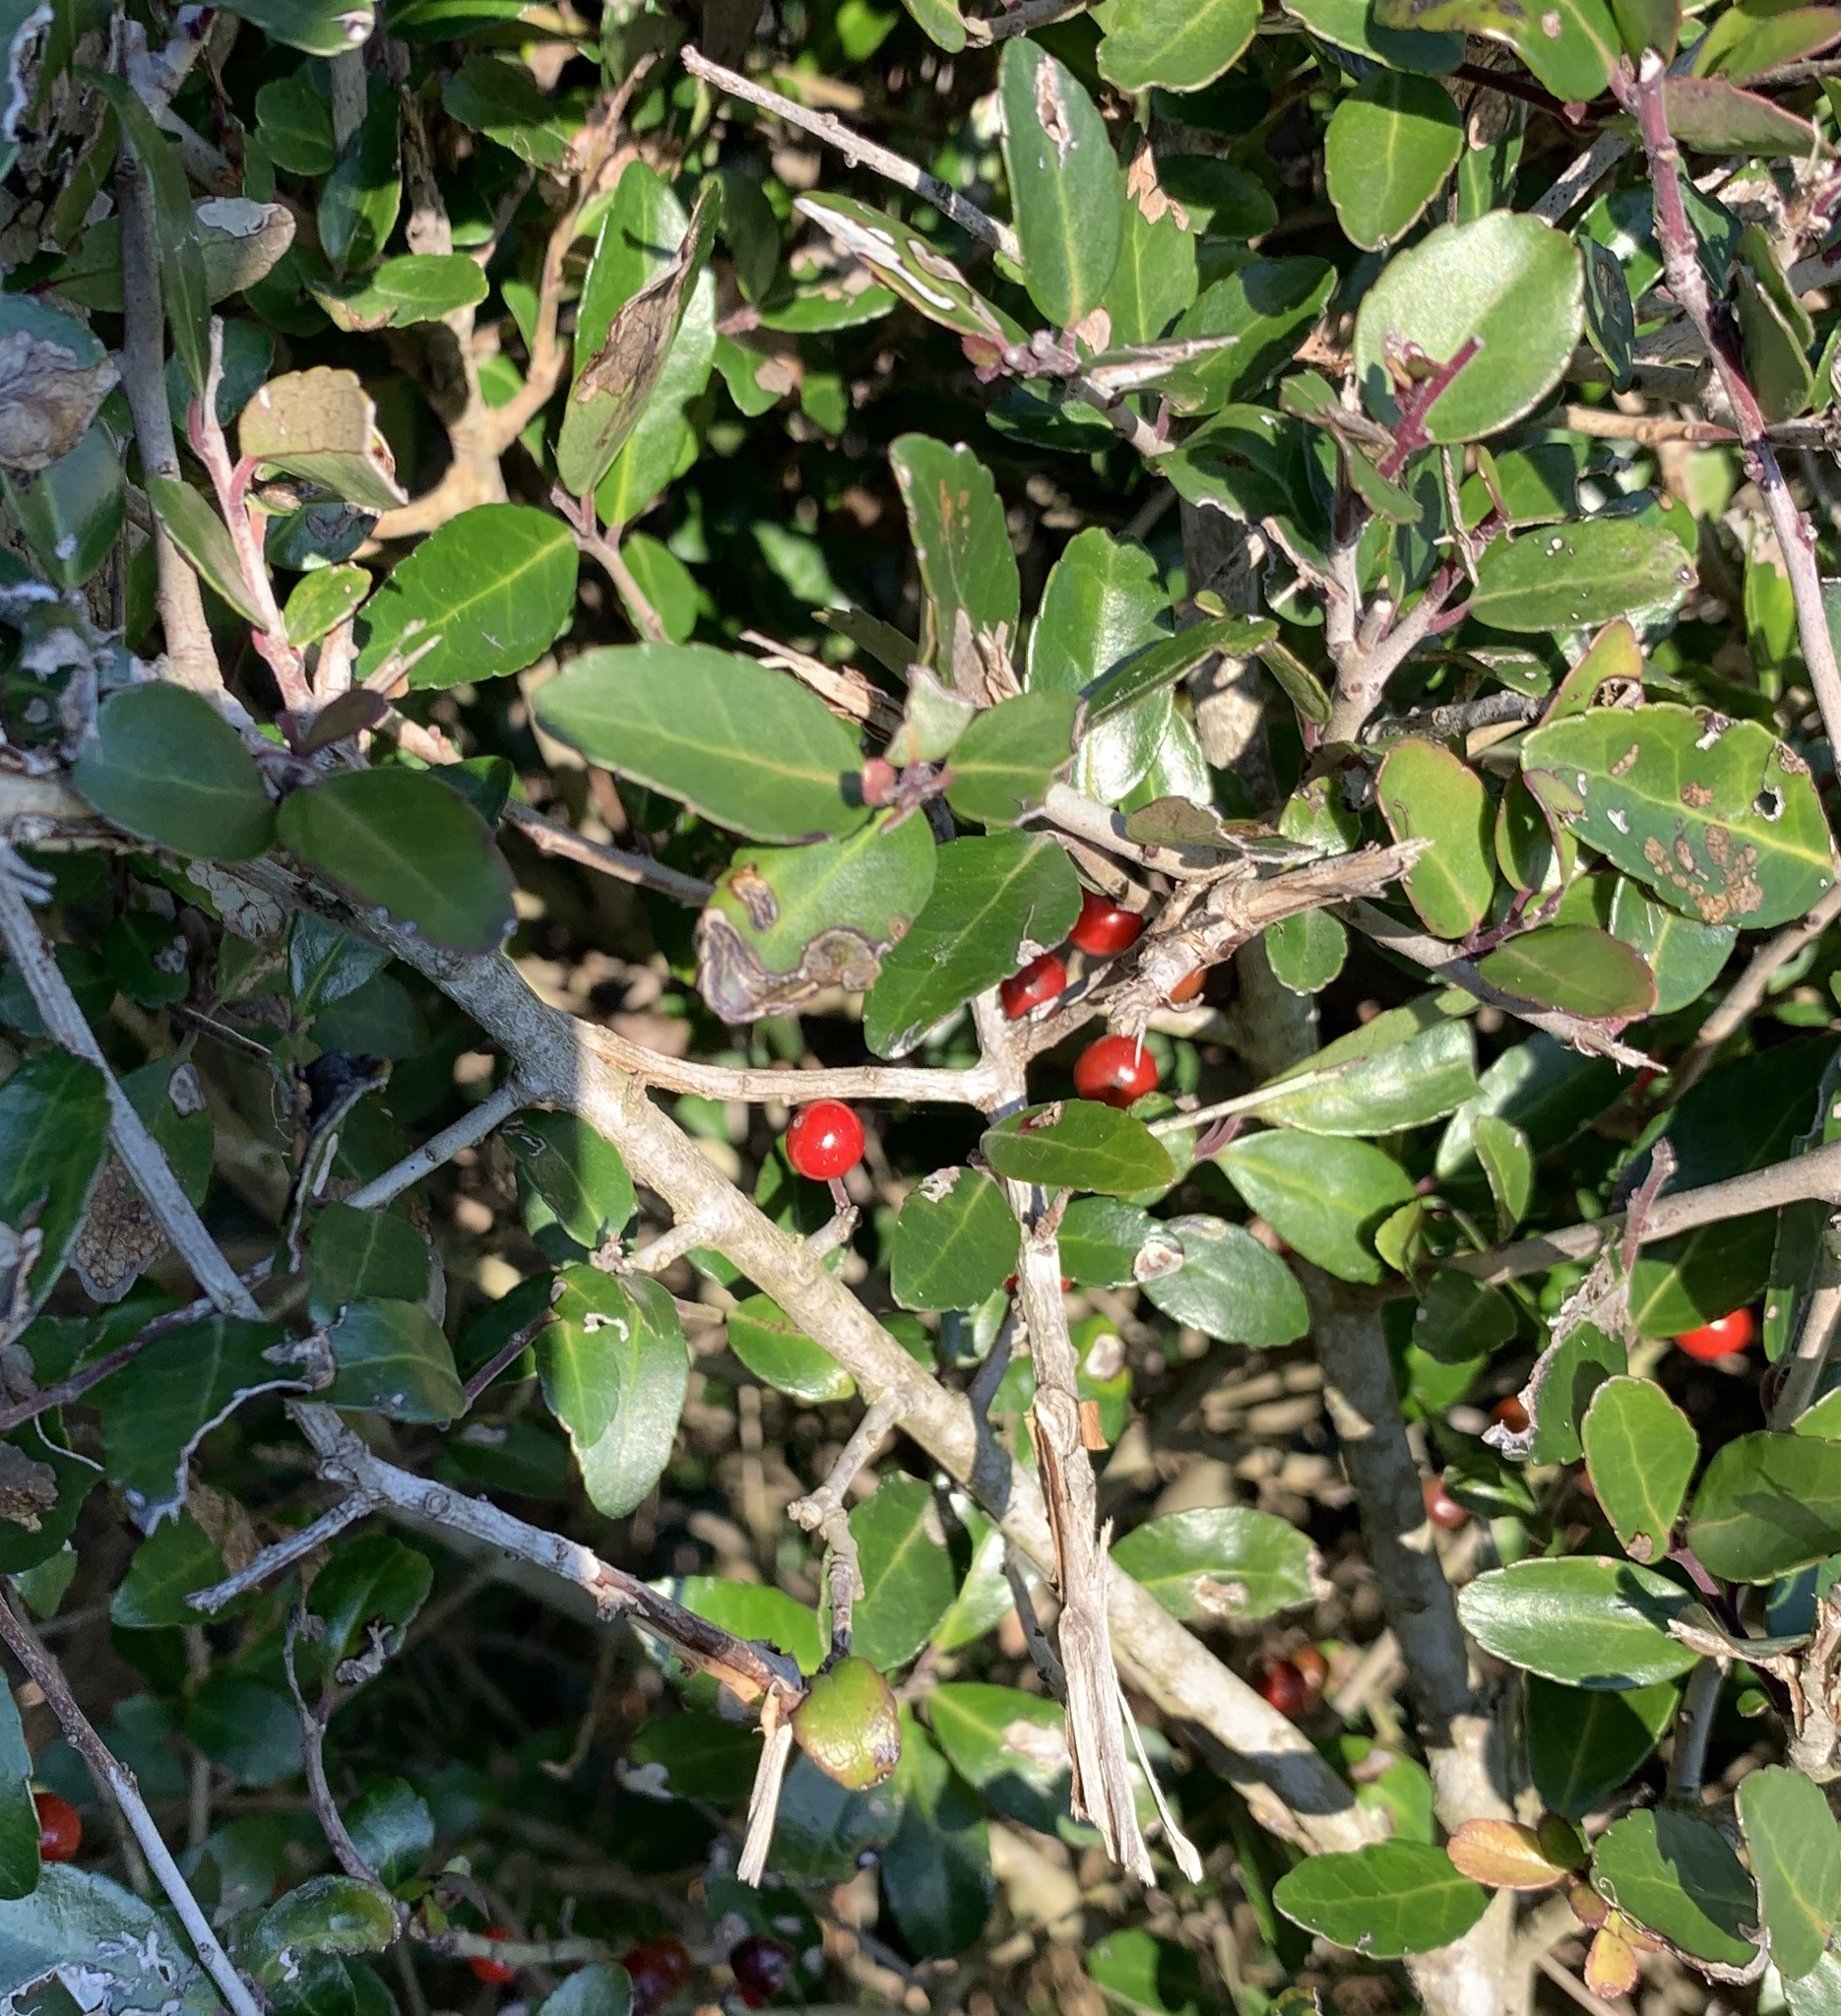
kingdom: Plantae
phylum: Tracheophyta
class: Magnoliopsida
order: Aquifoliales
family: Aquifoliaceae
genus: Ilex
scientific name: Ilex vomitoria
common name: Yaupon holly
